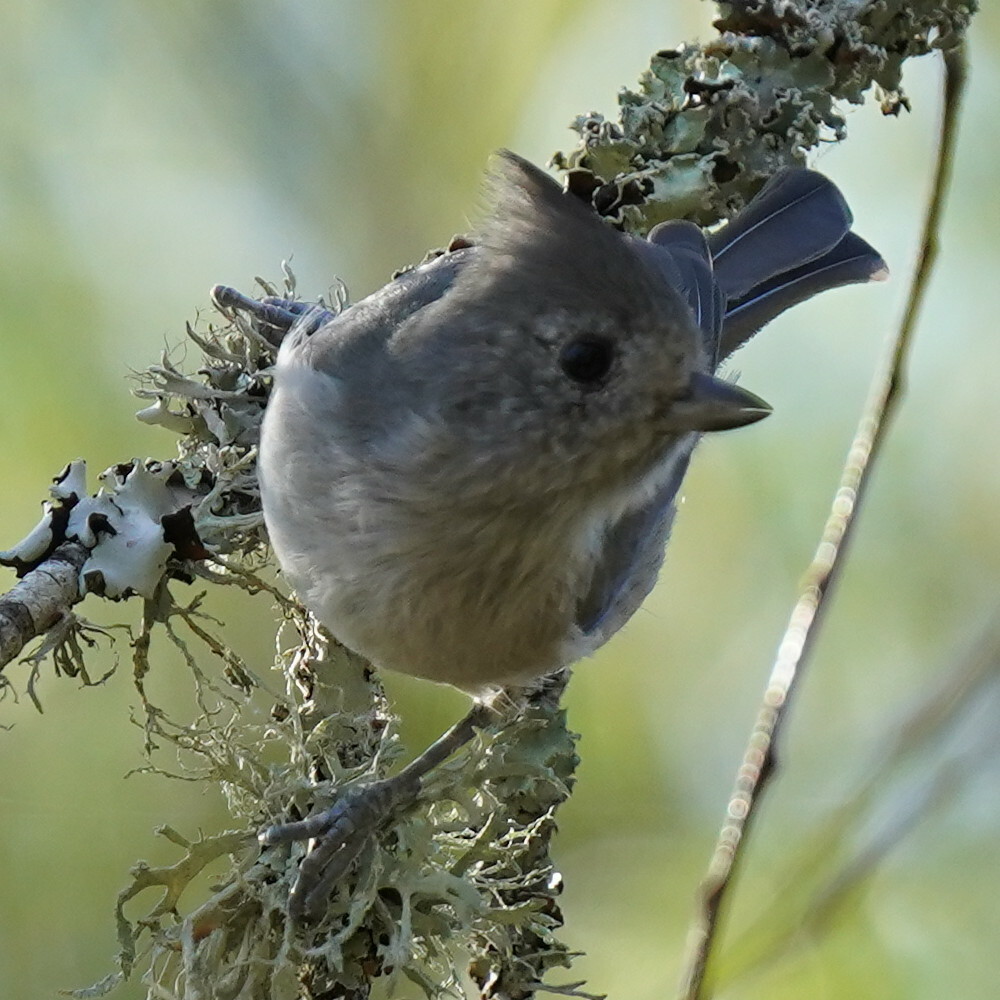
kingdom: Animalia
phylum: Chordata
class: Aves
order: Passeriformes
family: Paridae
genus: Baeolophus
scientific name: Baeolophus inornatus
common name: Oak titmouse
